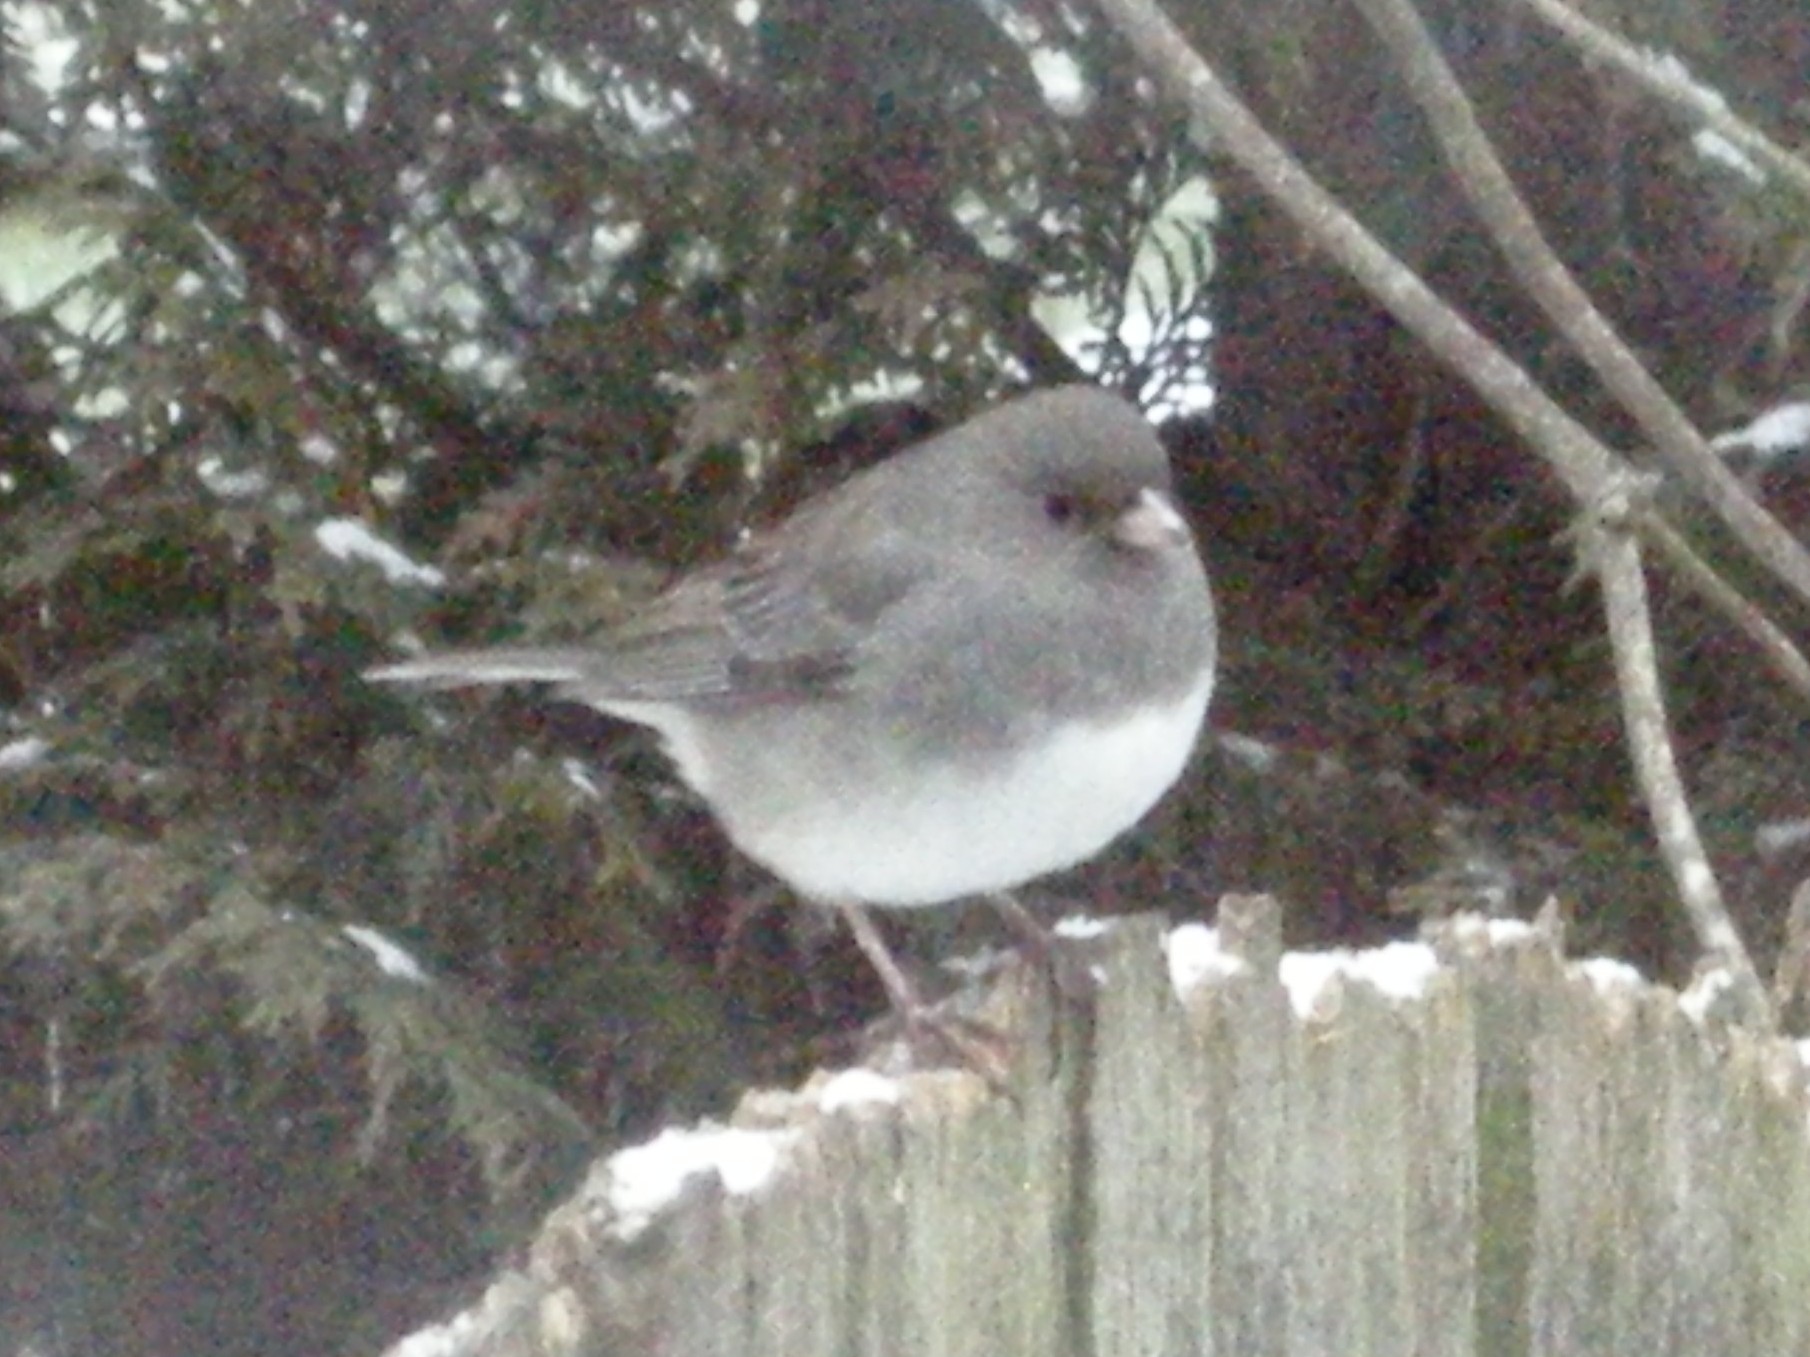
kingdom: Animalia
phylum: Chordata
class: Aves
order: Passeriformes
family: Passerellidae
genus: Junco
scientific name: Junco hyemalis
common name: Dark-eyed junco
